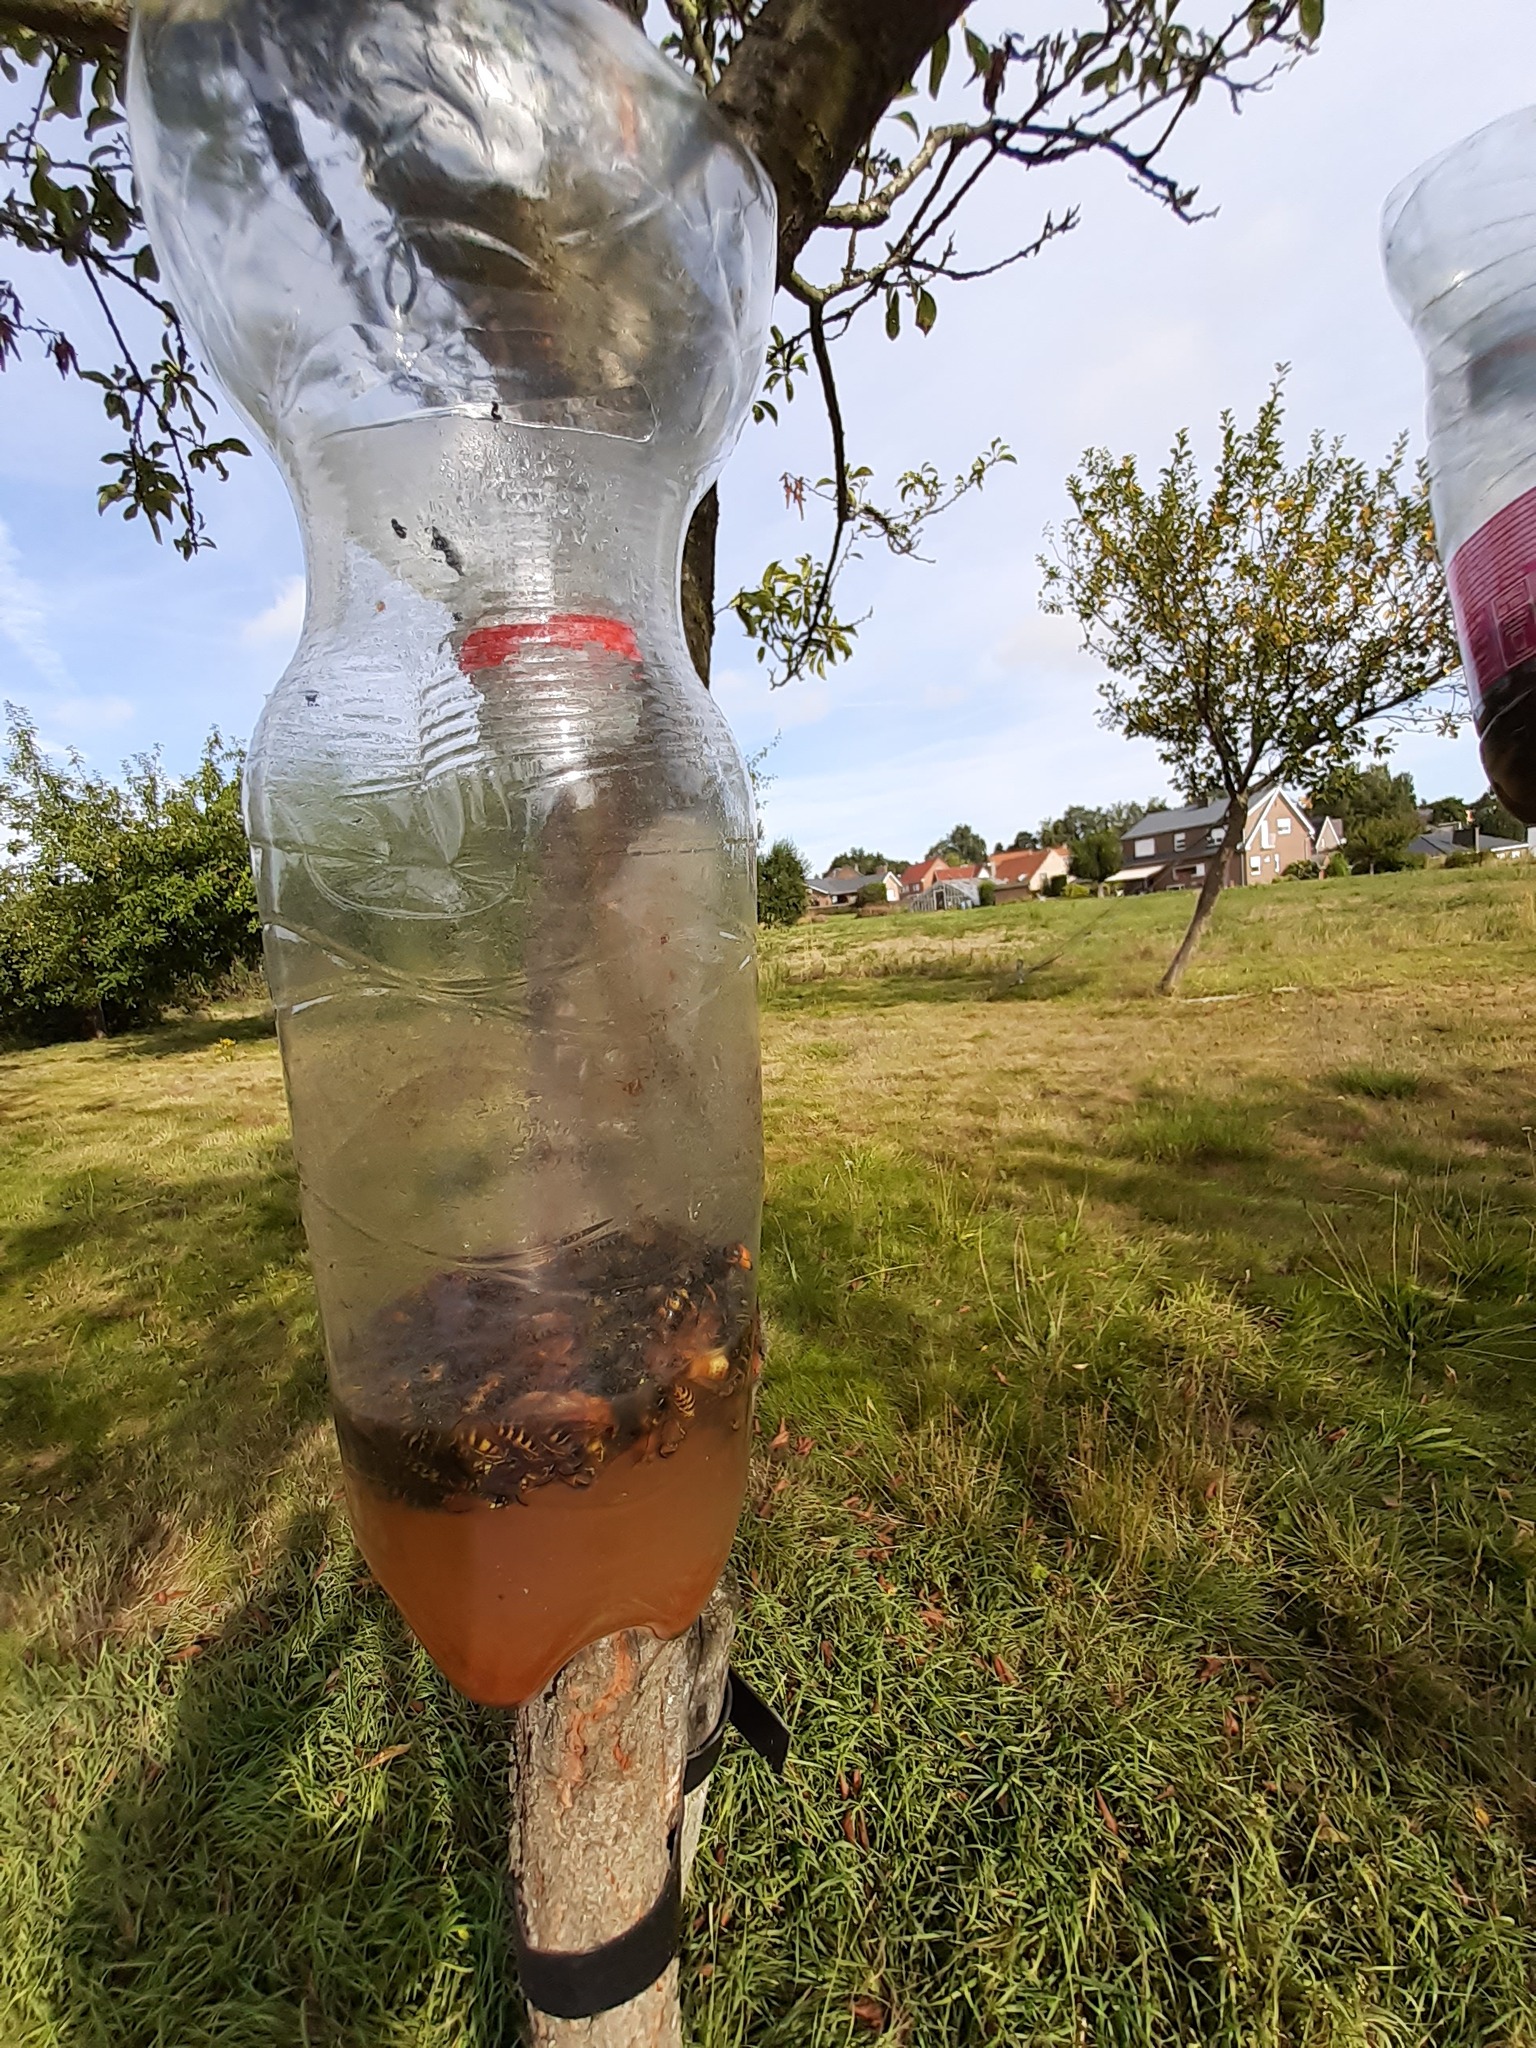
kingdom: Animalia
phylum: Arthropoda
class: Insecta
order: Hymenoptera
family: Vespidae
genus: Vespa
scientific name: Vespa velutina
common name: Asian hornet
